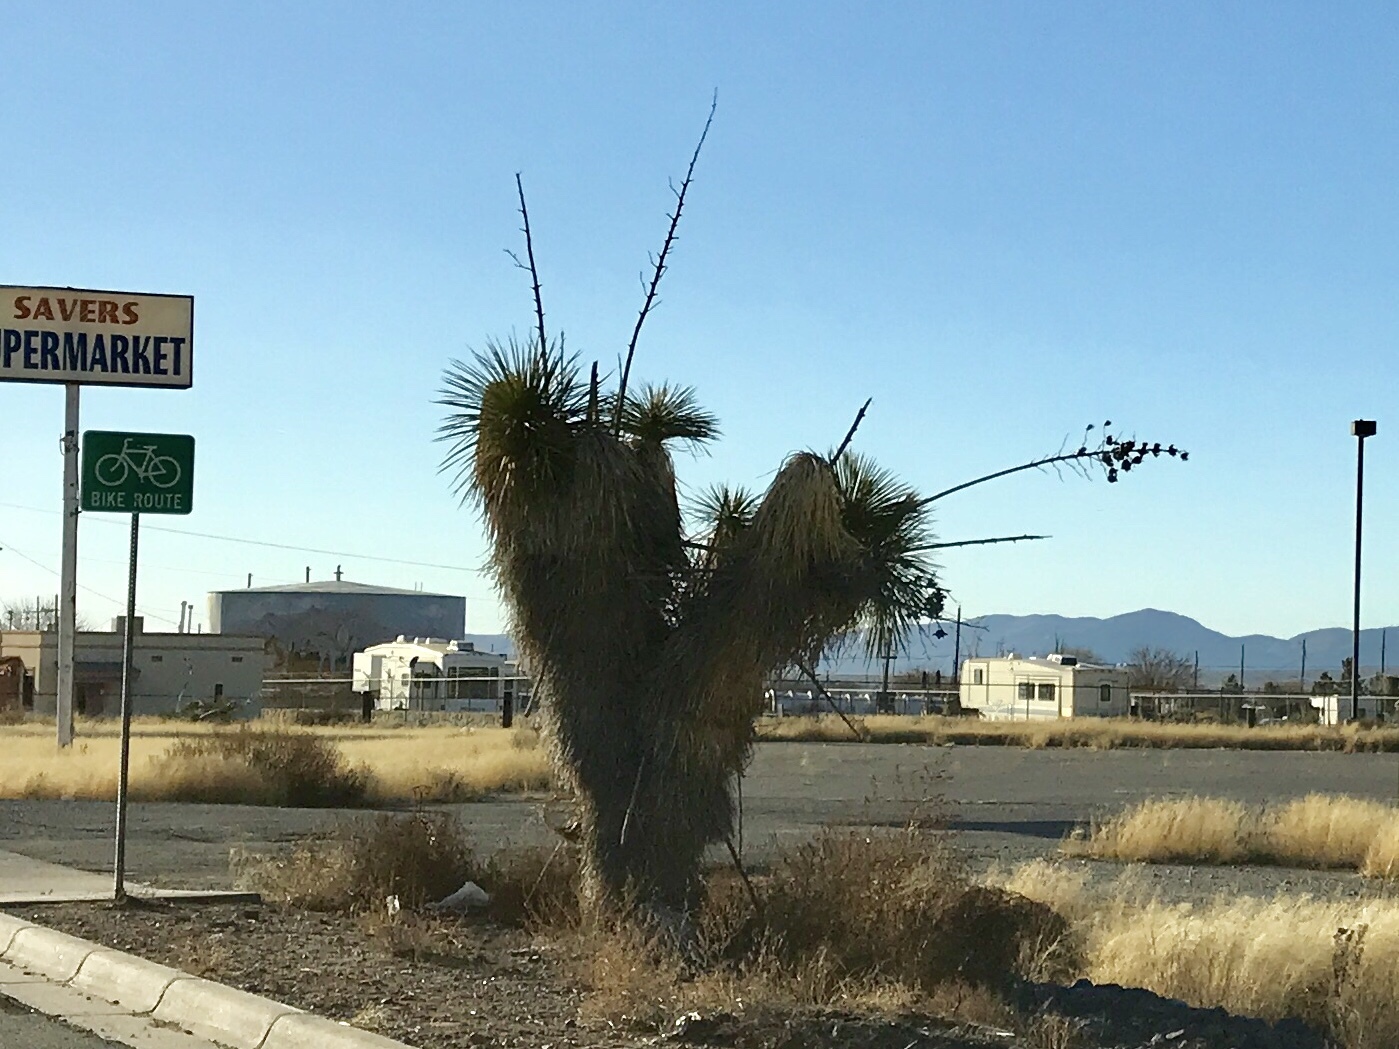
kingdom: Plantae
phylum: Tracheophyta
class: Liliopsida
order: Asparagales
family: Asparagaceae
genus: Yucca
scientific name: Yucca elata
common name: Palmella
